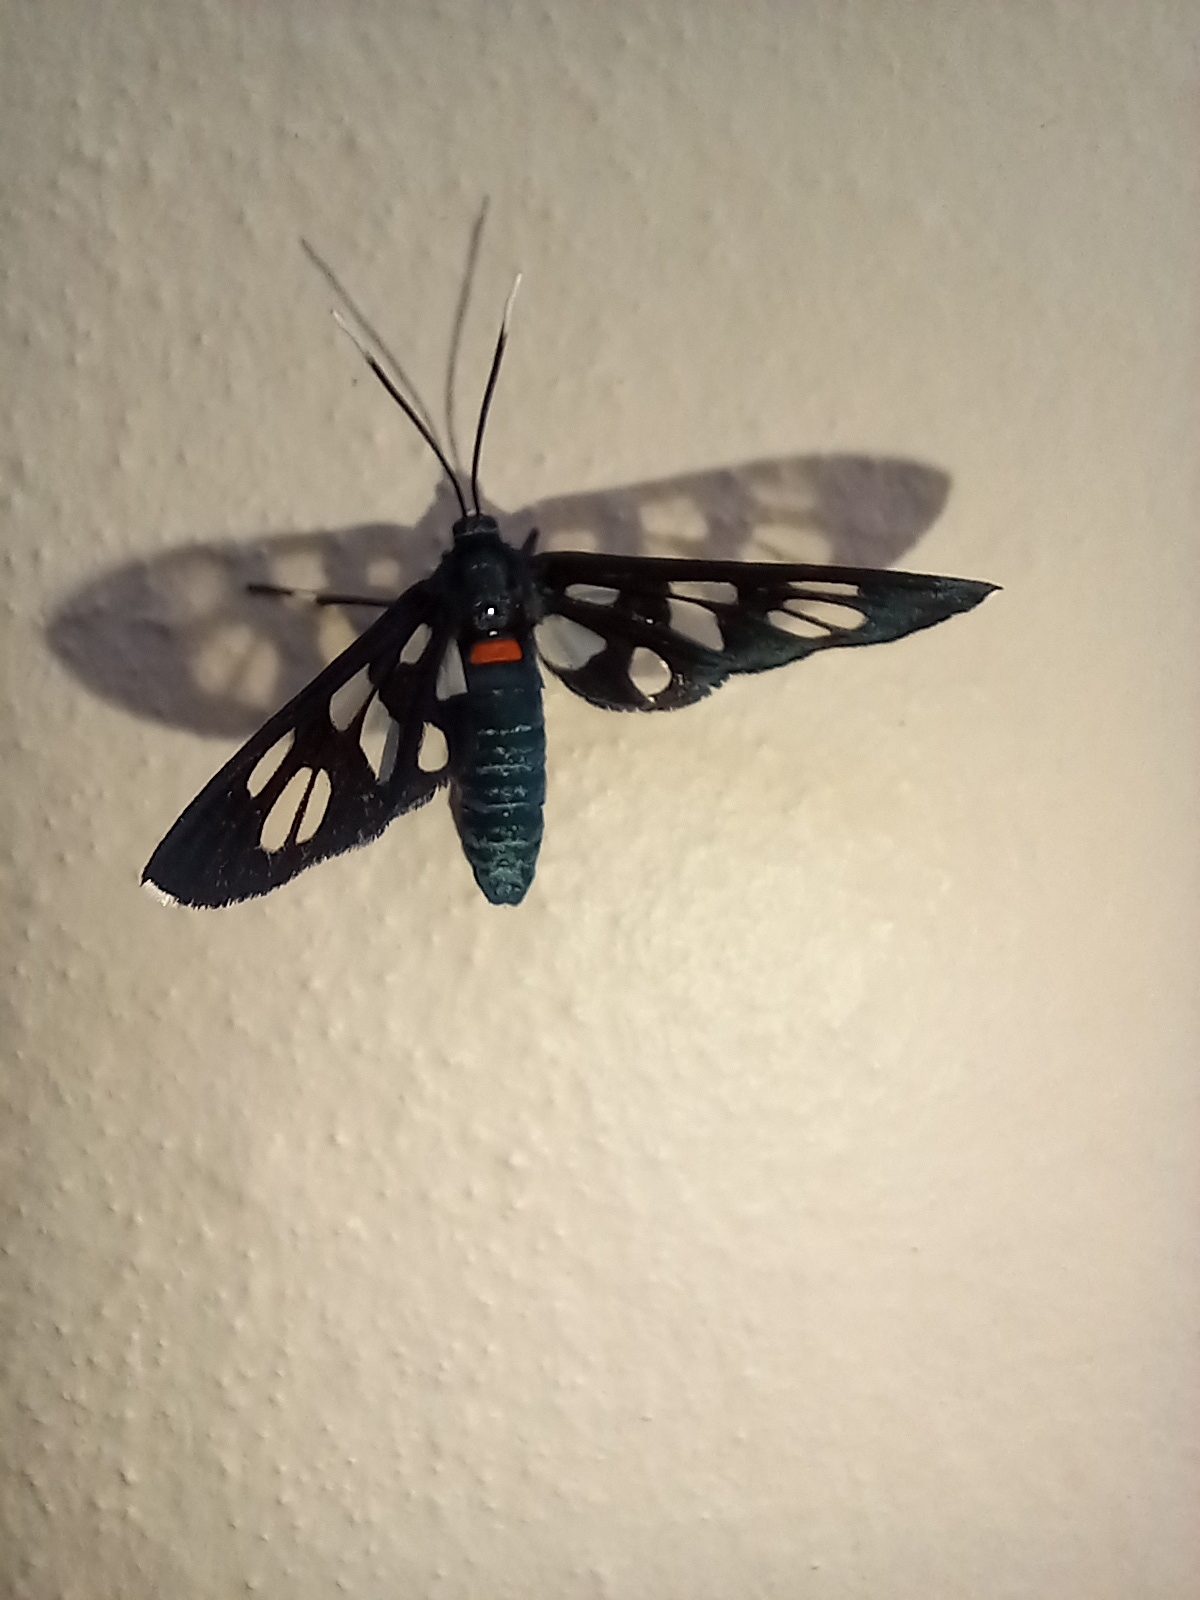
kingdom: Animalia
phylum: Arthropoda
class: Insecta
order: Lepidoptera
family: Erebidae
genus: Amata
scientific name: Amata kuhlweini
